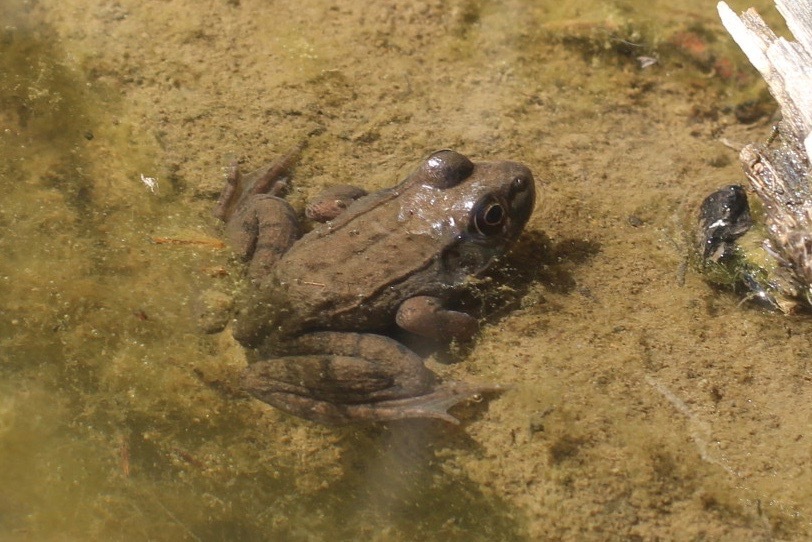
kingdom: Animalia
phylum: Chordata
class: Amphibia
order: Anura
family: Ranidae
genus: Lithobates
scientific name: Lithobates clamitans
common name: Green frog
